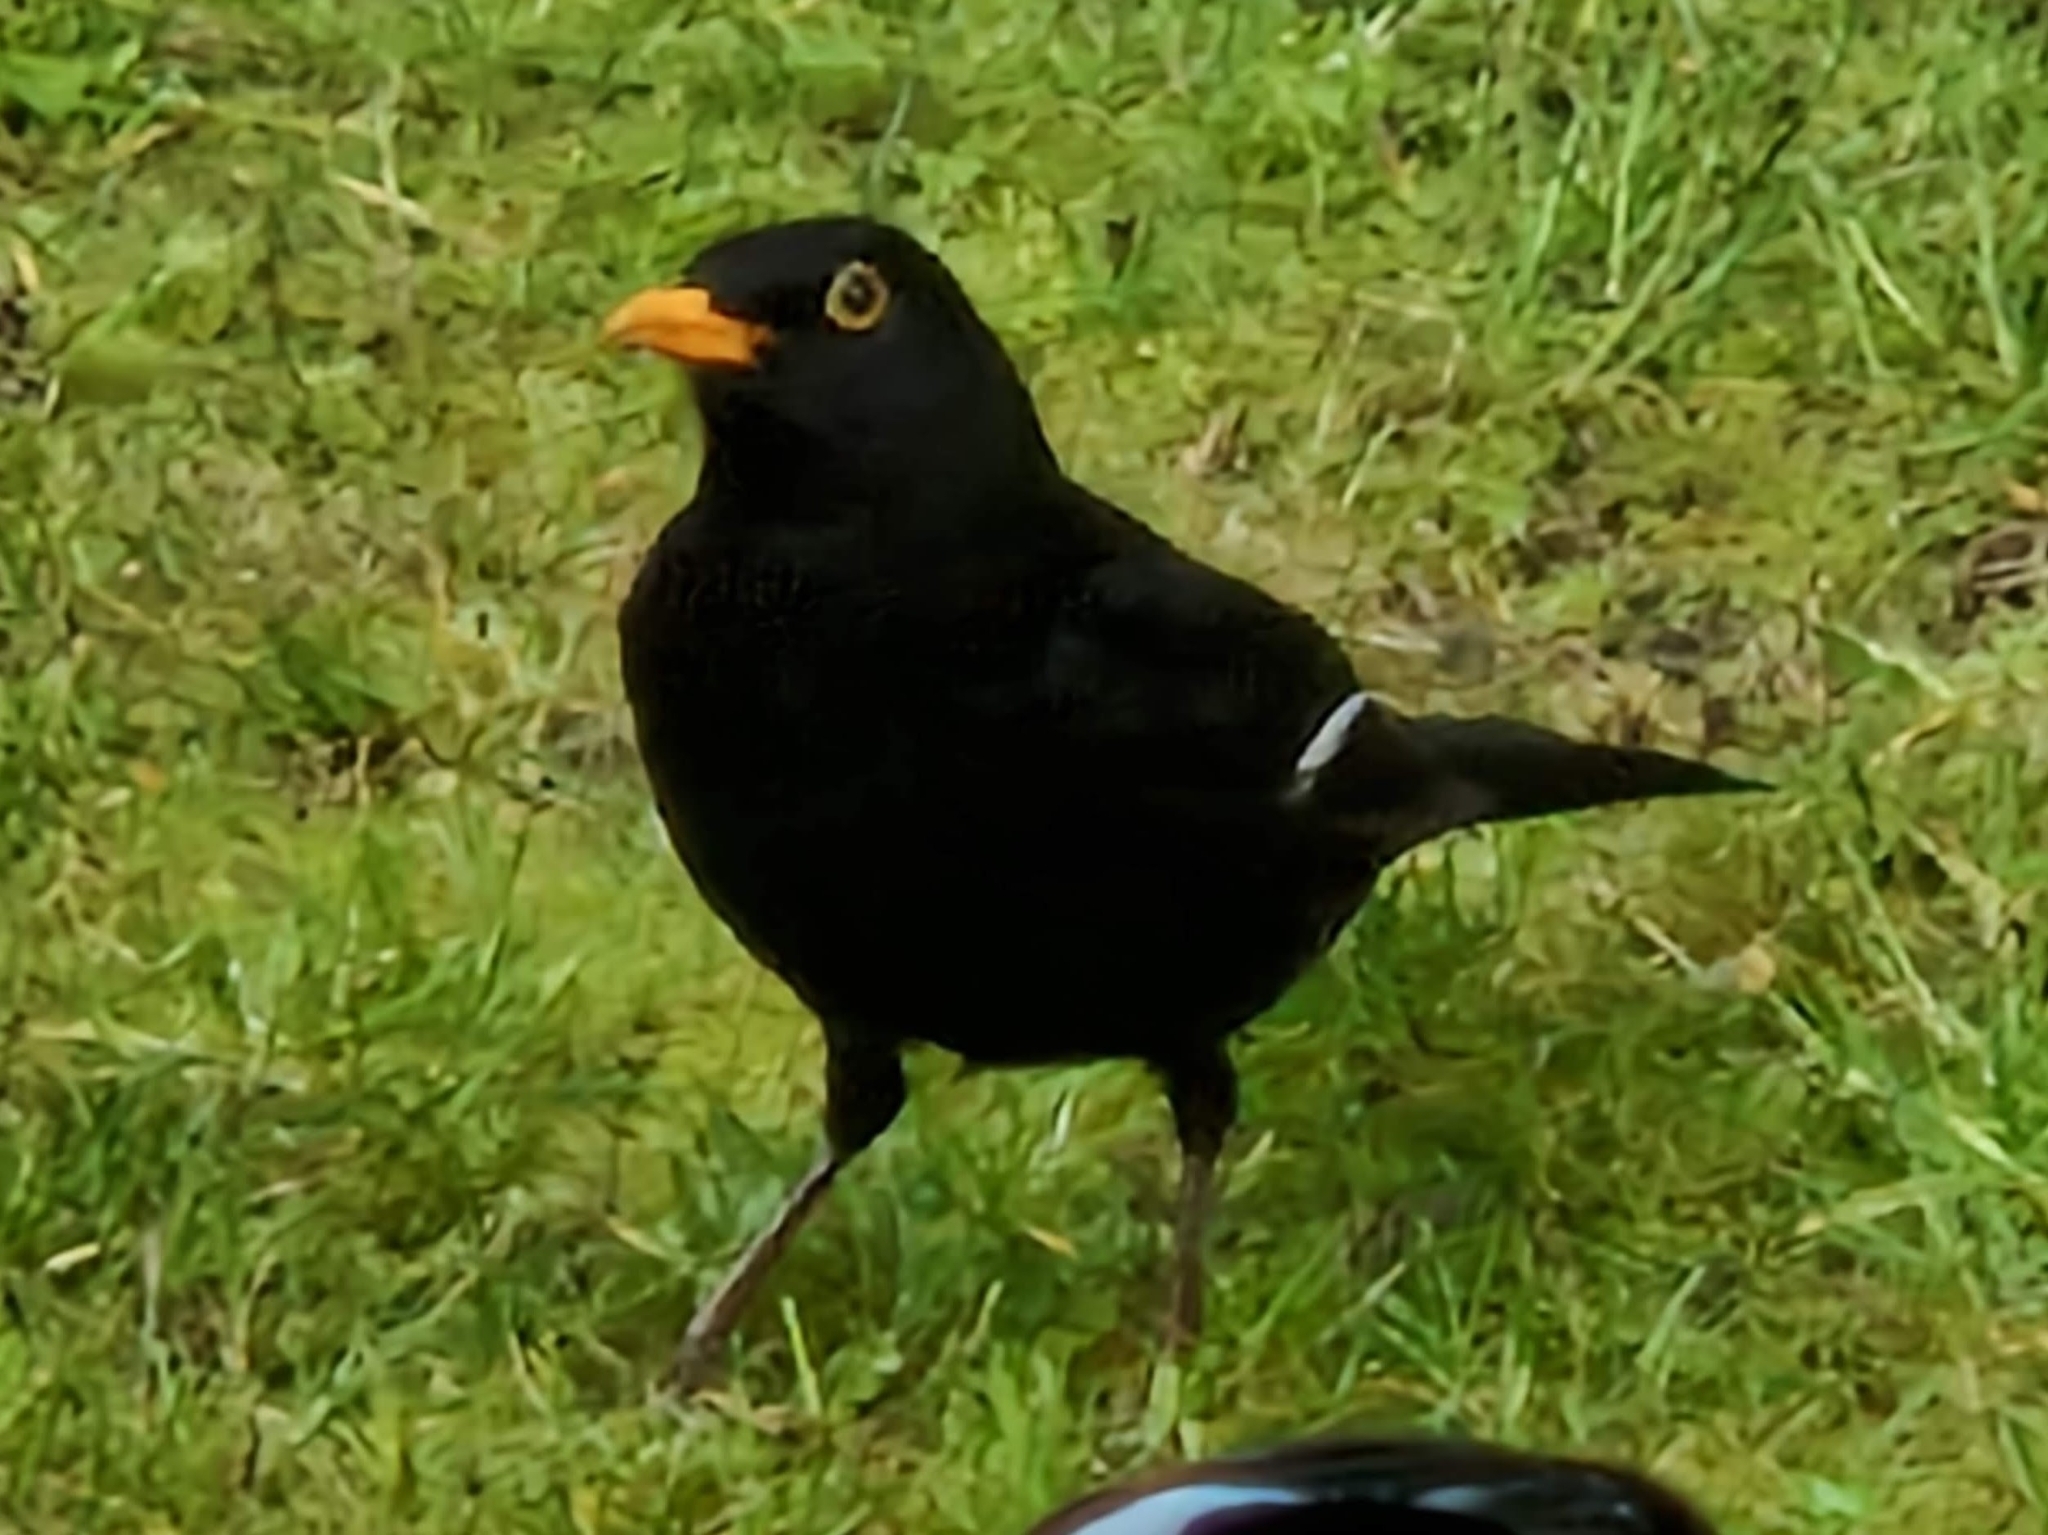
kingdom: Animalia
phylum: Chordata
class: Aves
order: Passeriformes
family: Turdidae
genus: Turdus
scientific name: Turdus merula
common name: Common blackbird
